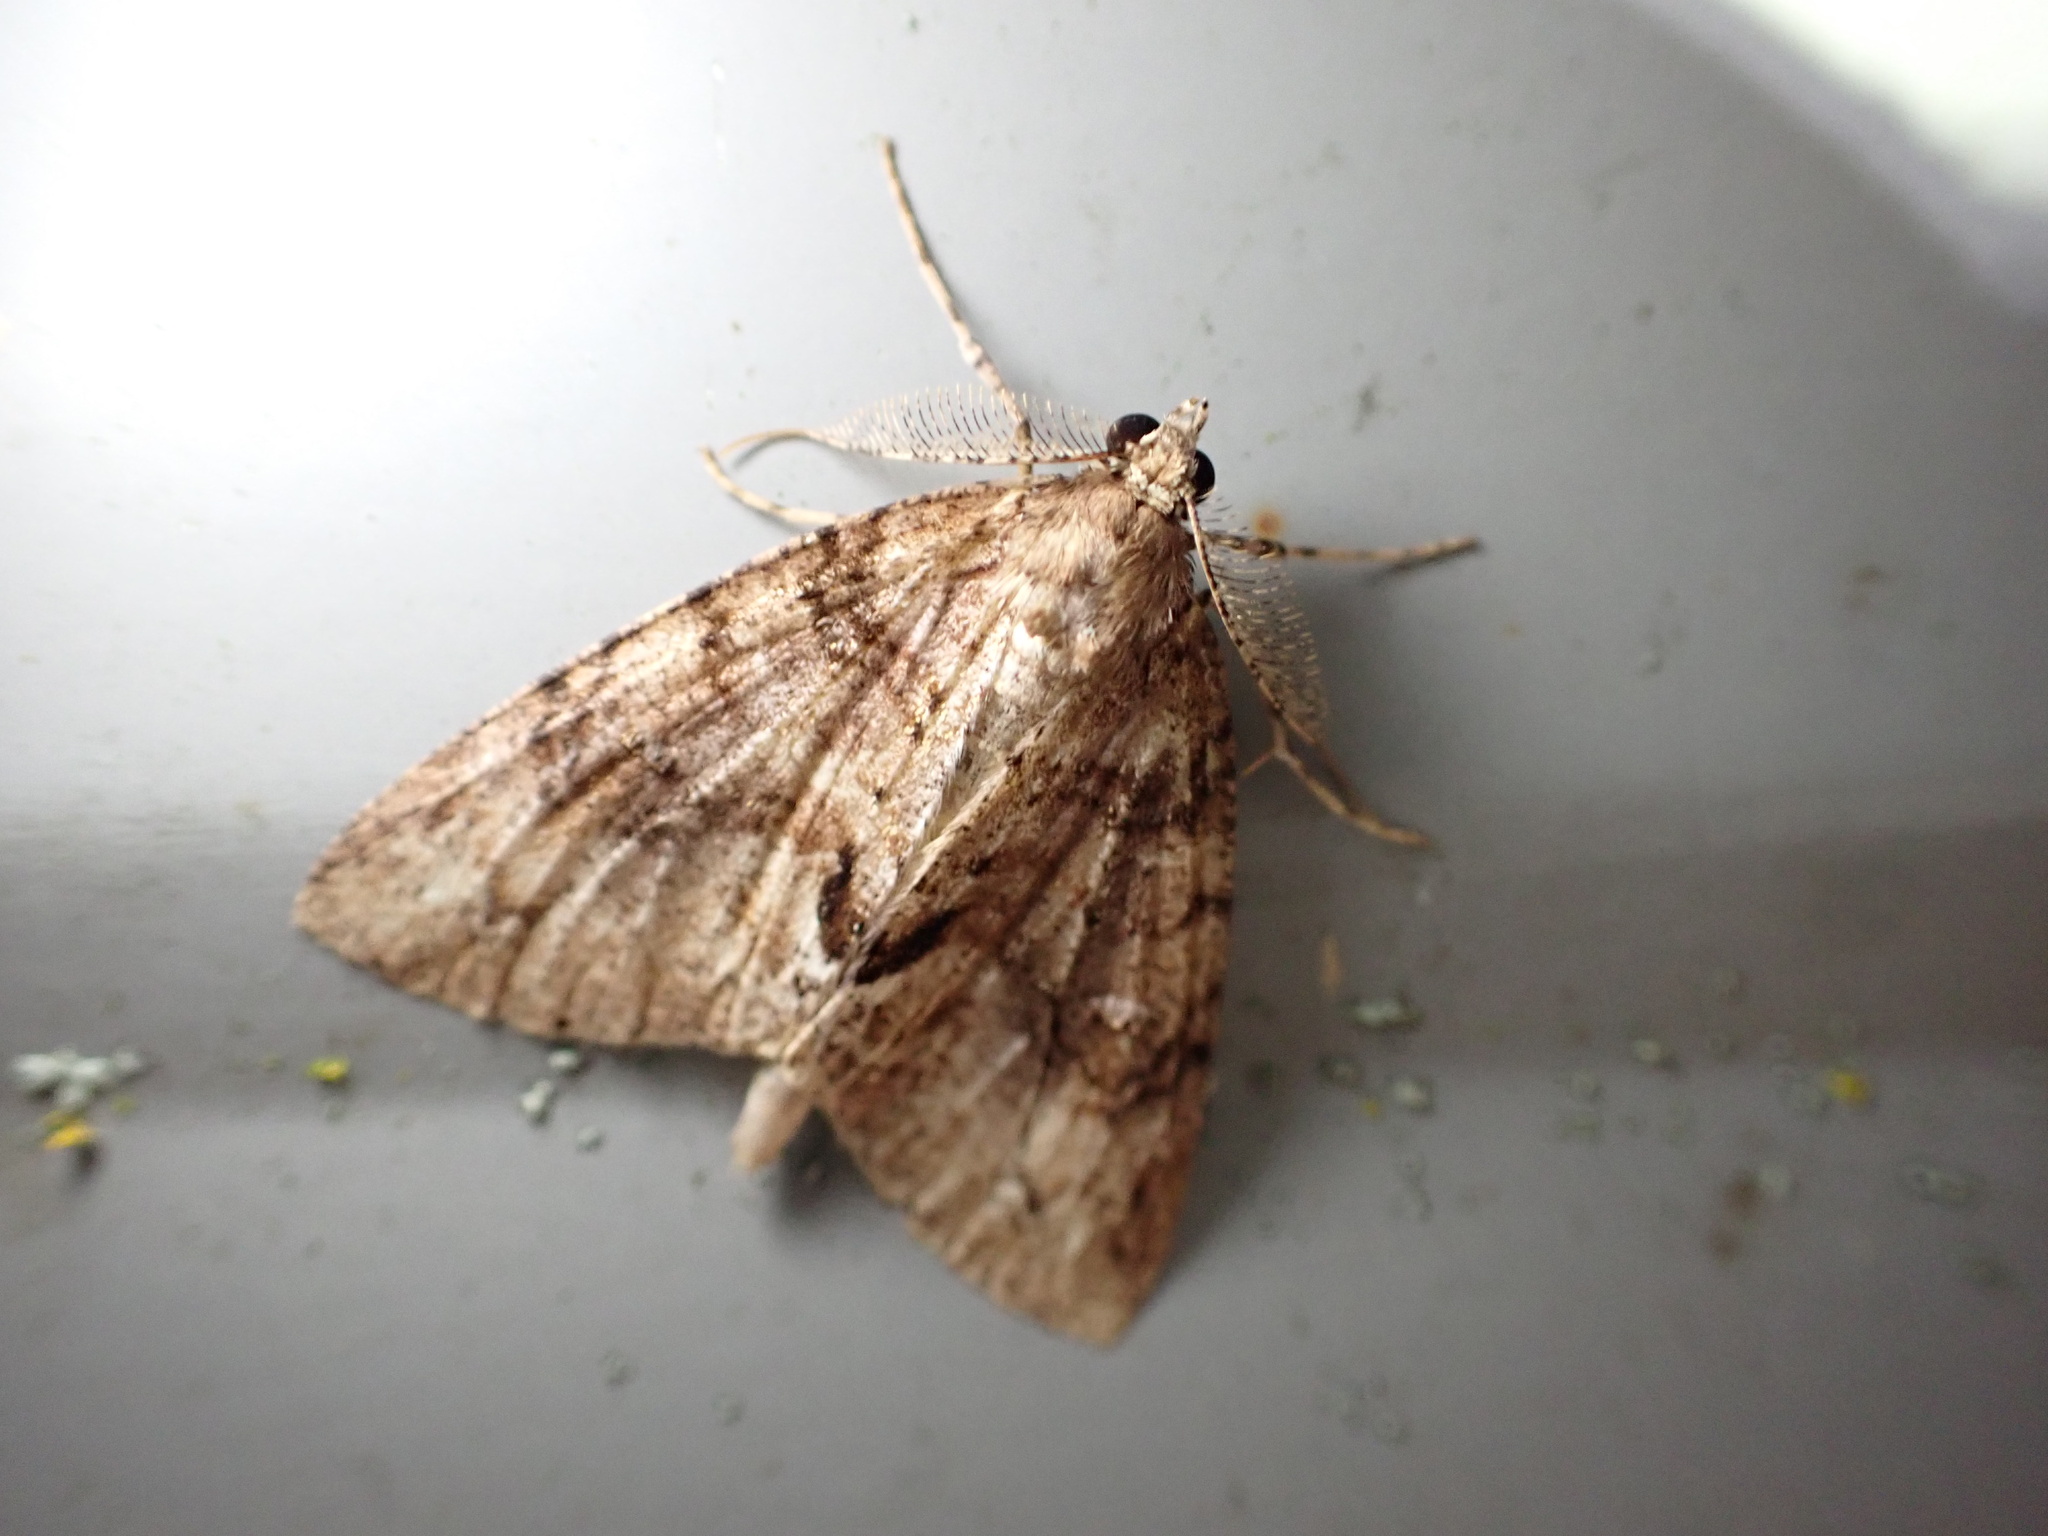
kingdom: Animalia
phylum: Arthropoda
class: Insecta
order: Lepidoptera
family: Geometridae
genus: Pseudocoremia
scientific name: Pseudocoremia suavis
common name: Common forest looper
